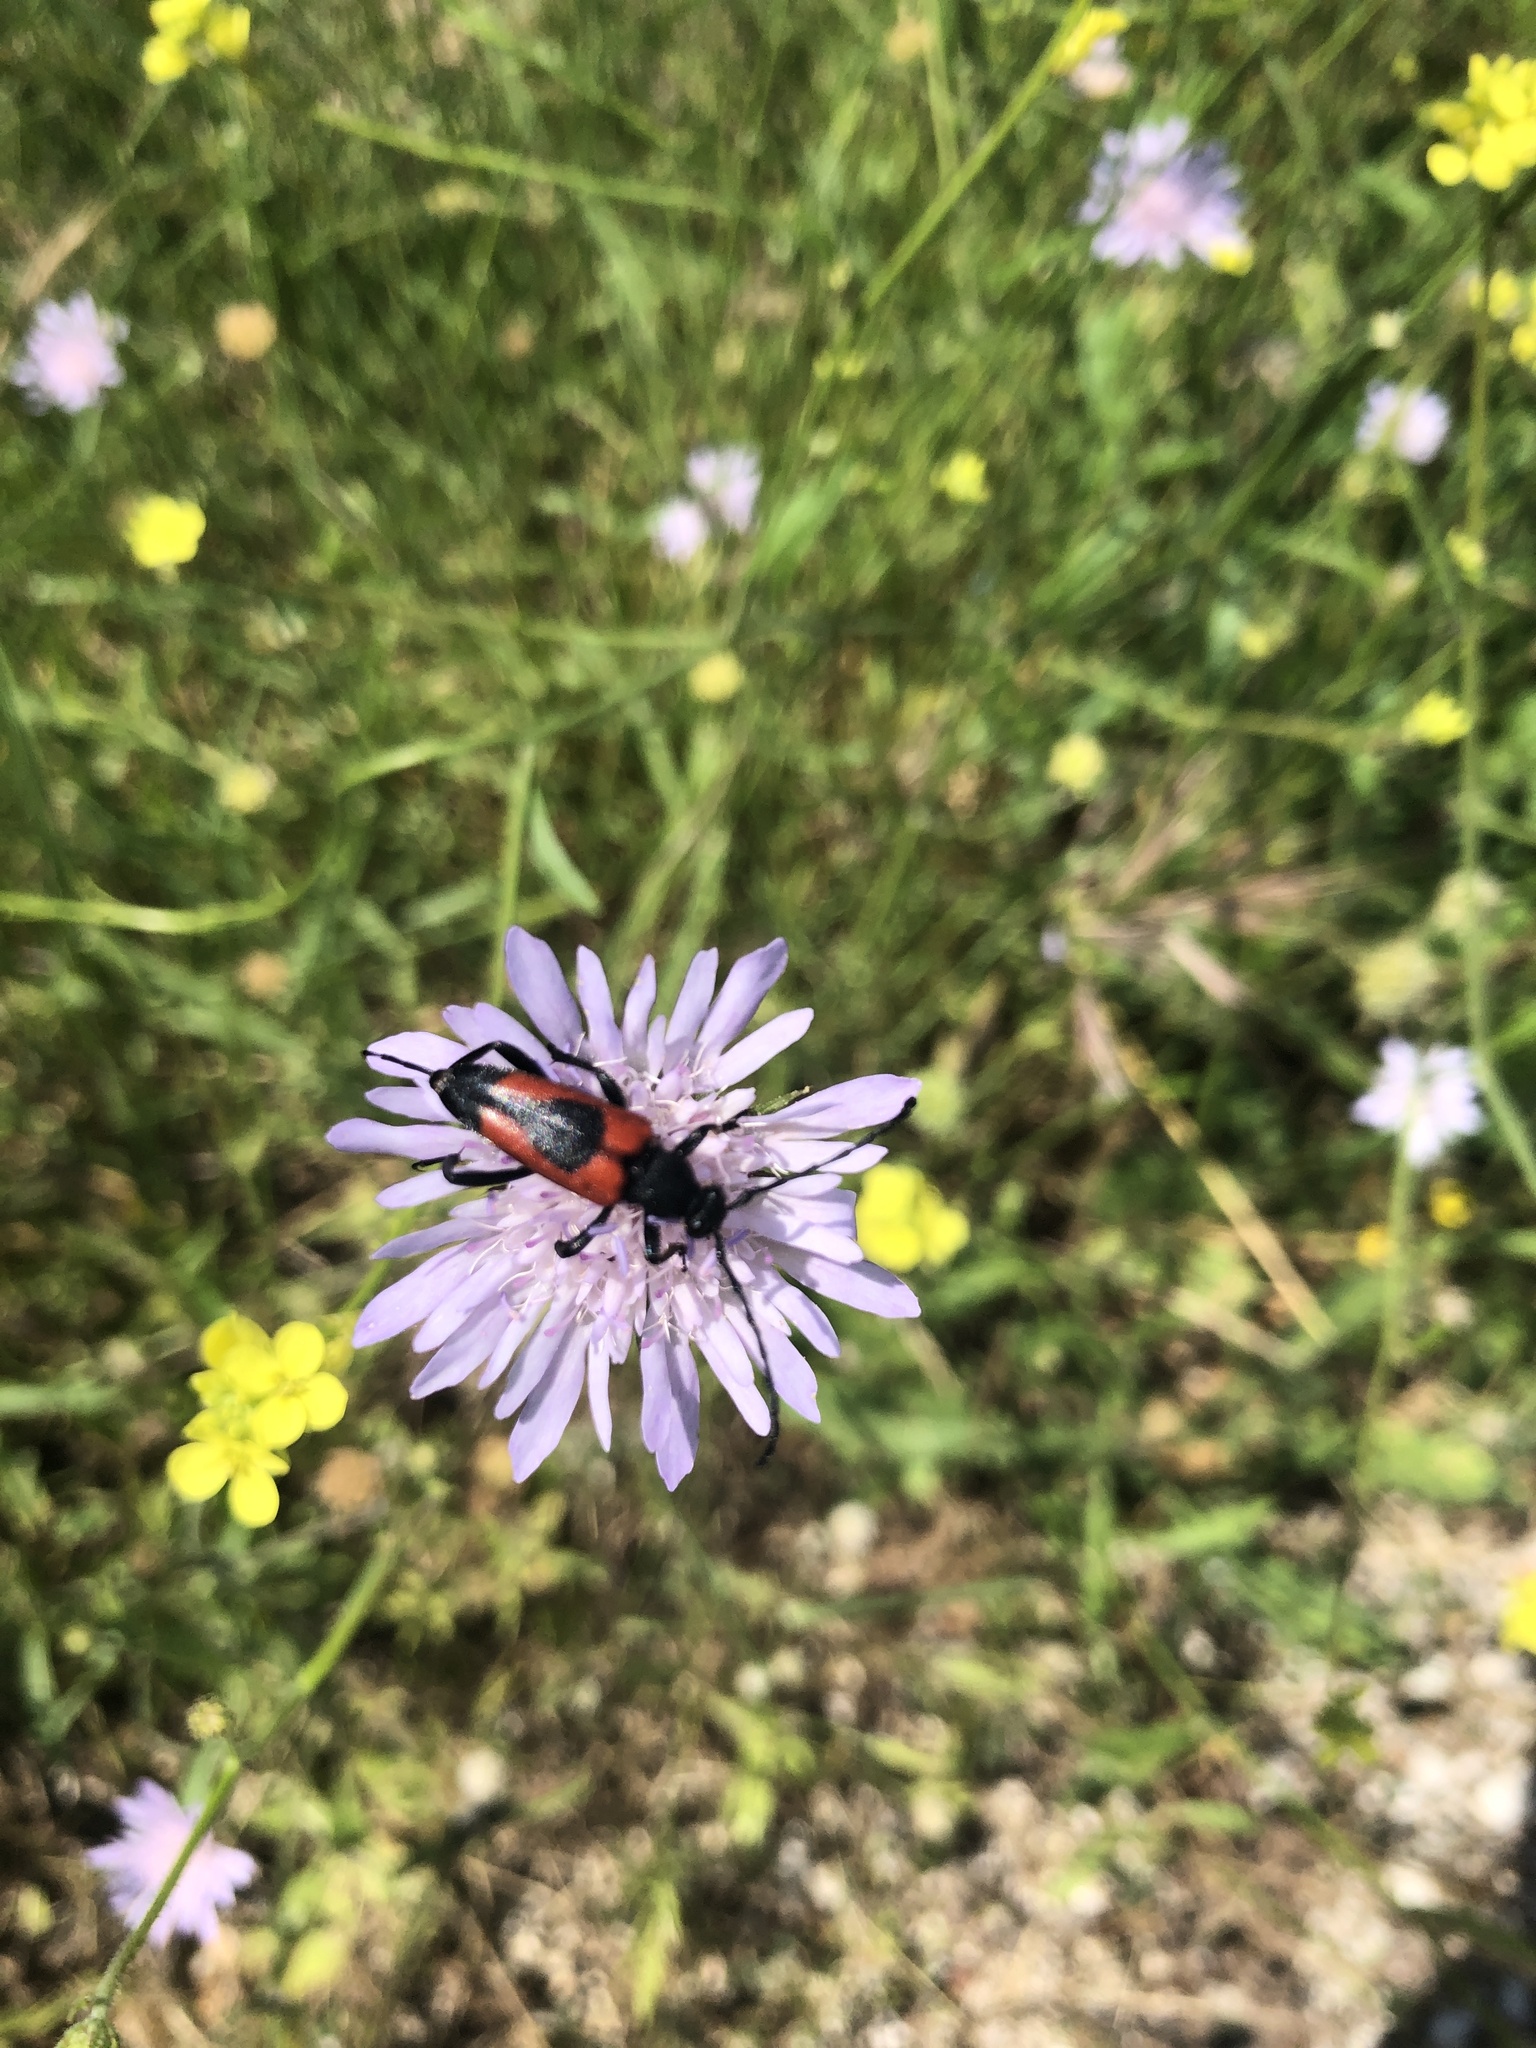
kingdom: Animalia
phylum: Arthropoda
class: Insecta
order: Coleoptera
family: Cerambycidae
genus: Stictoleptura
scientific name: Stictoleptura cordigera
